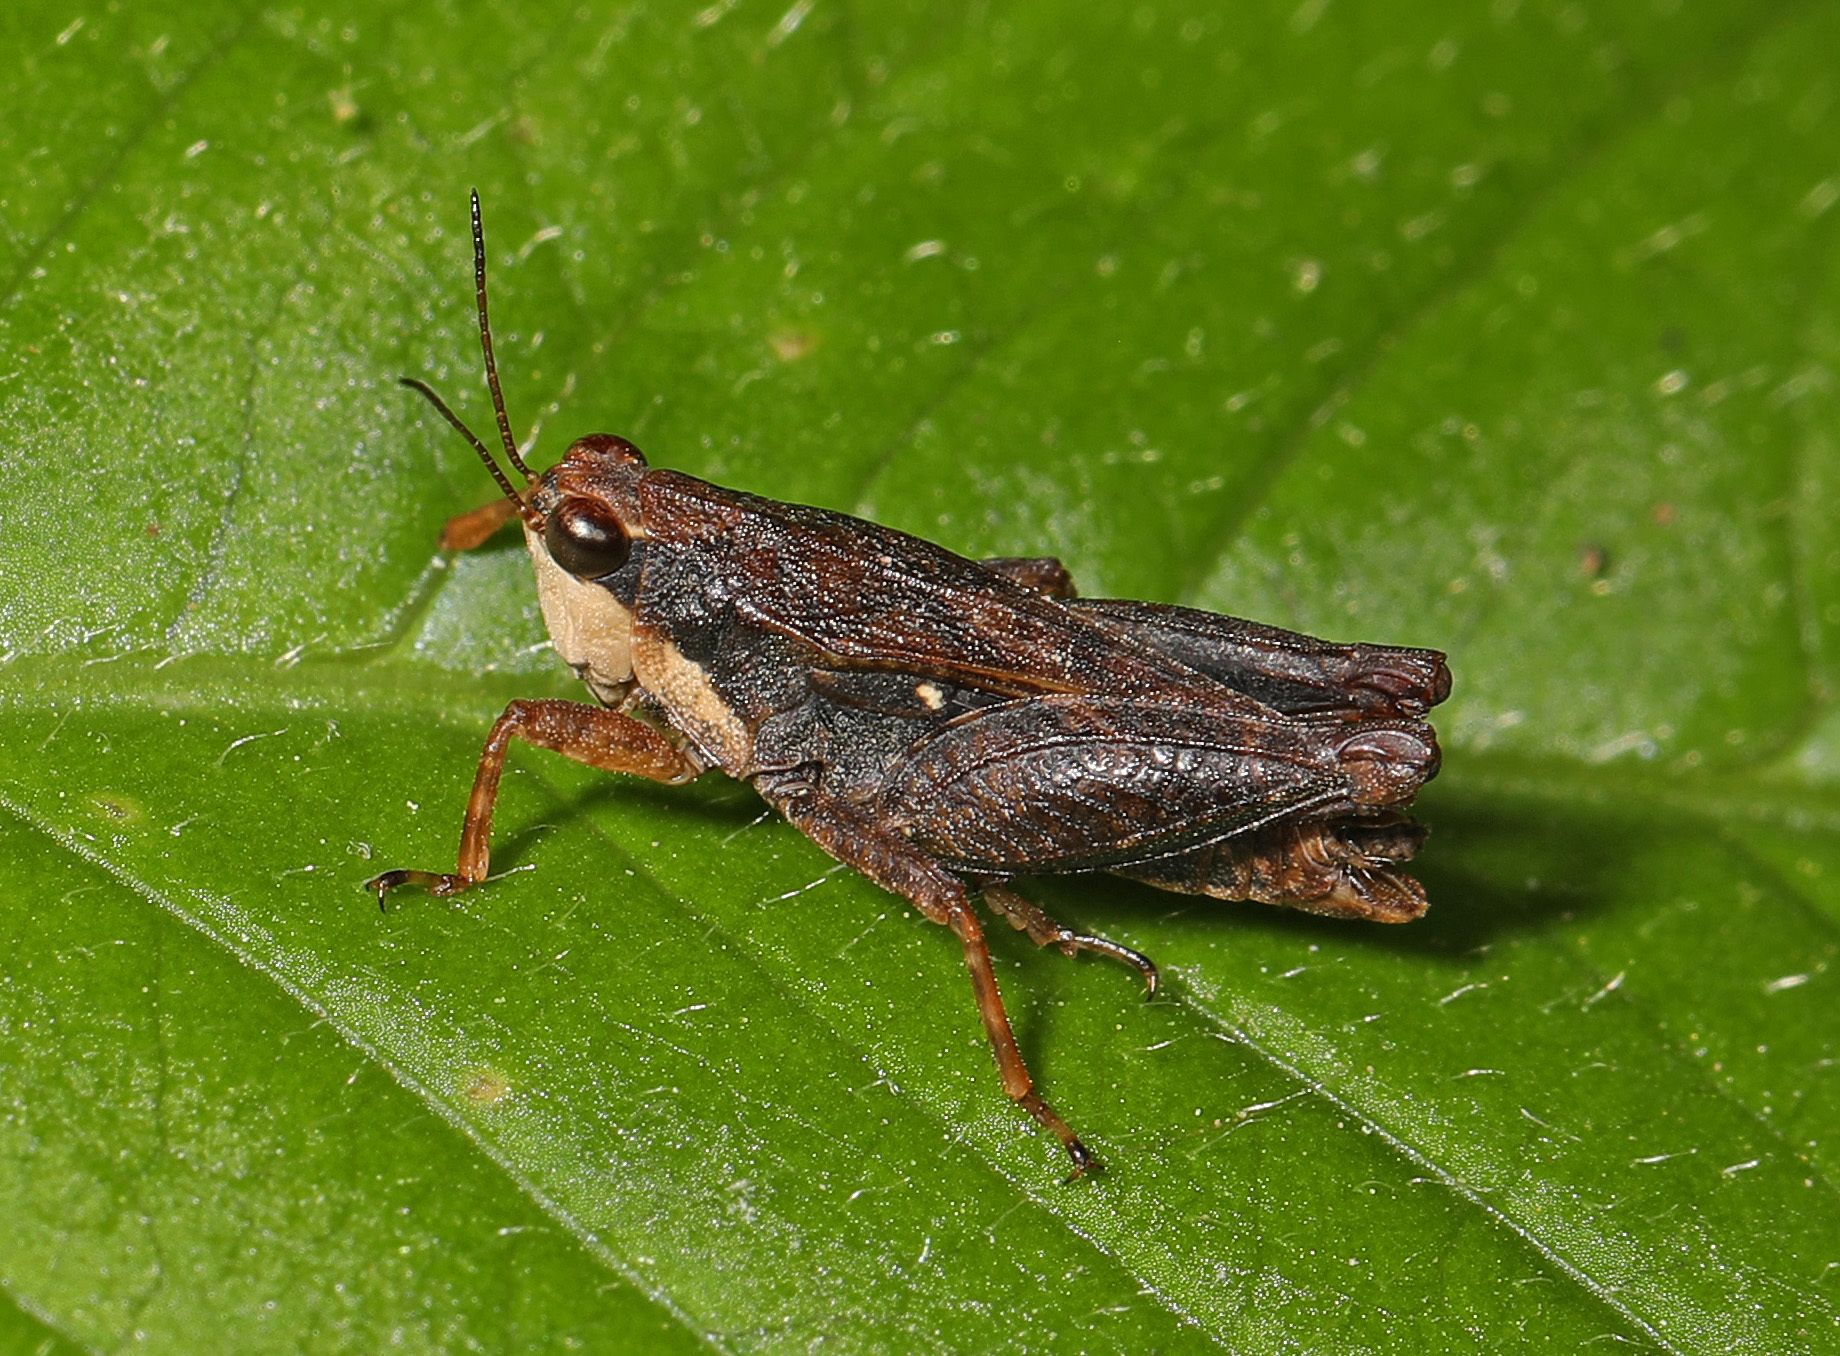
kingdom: Animalia
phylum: Arthropoda
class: Insecta
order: Orthoptera
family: Tetrigidae
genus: Tettigidea
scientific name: Tettigidea laterale
